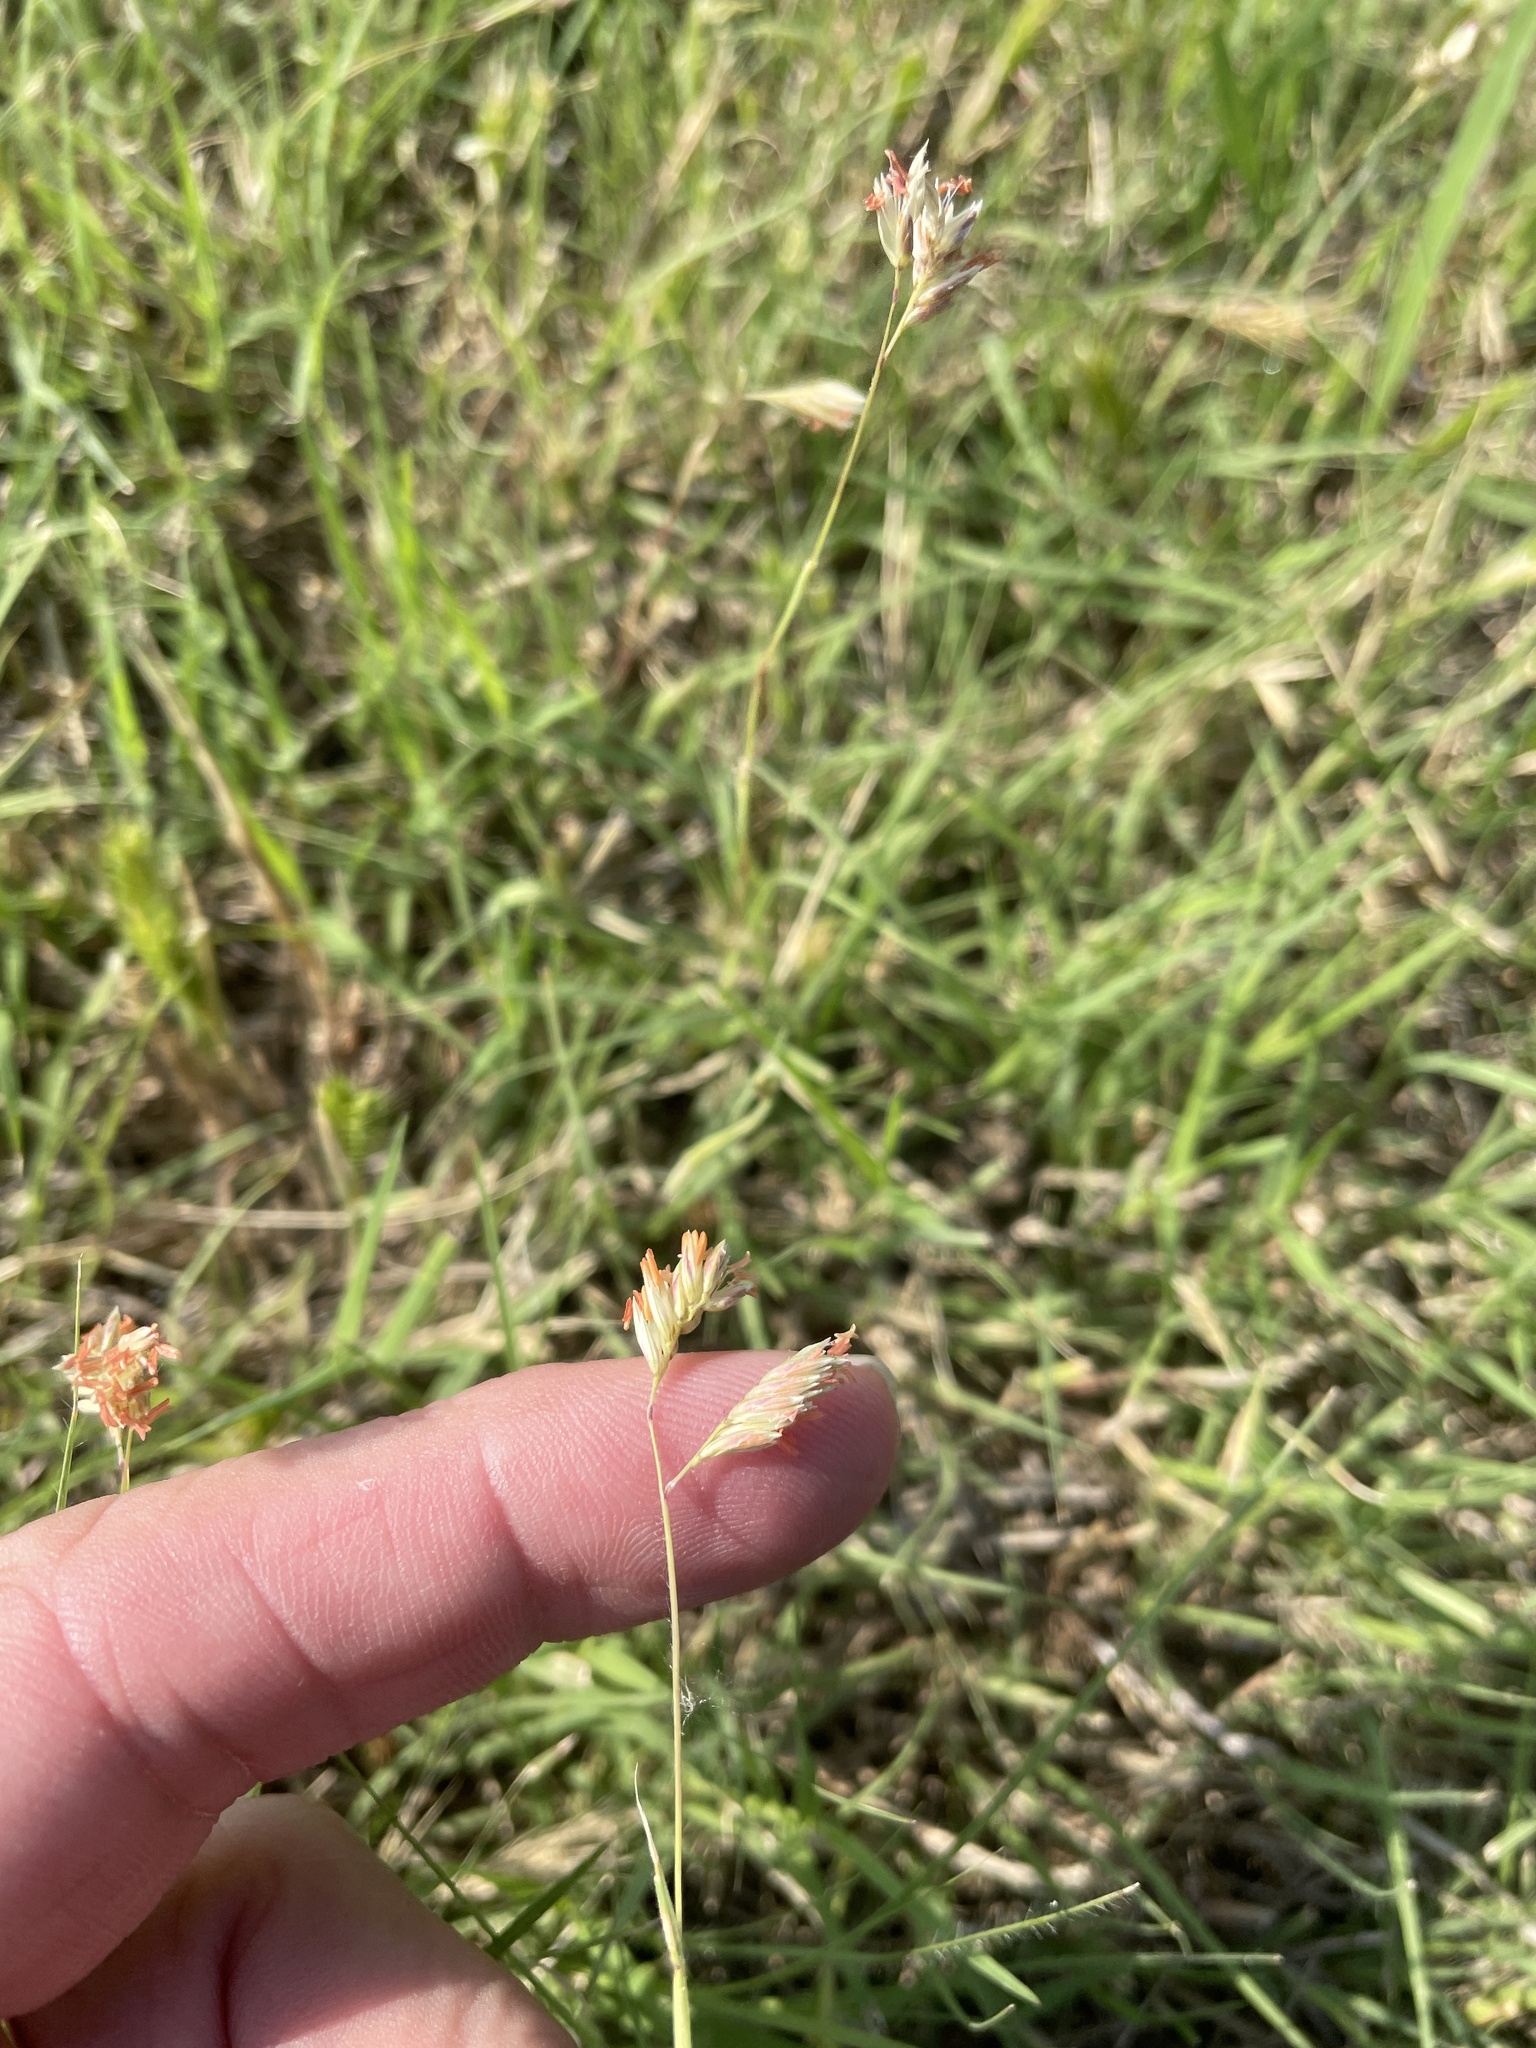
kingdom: Plantae
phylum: Tracheophyta
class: Liliopsida
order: Poales
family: Poaceae
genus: Bouteloua
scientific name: Bouteloua dactyloides
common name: Buffalo grass
